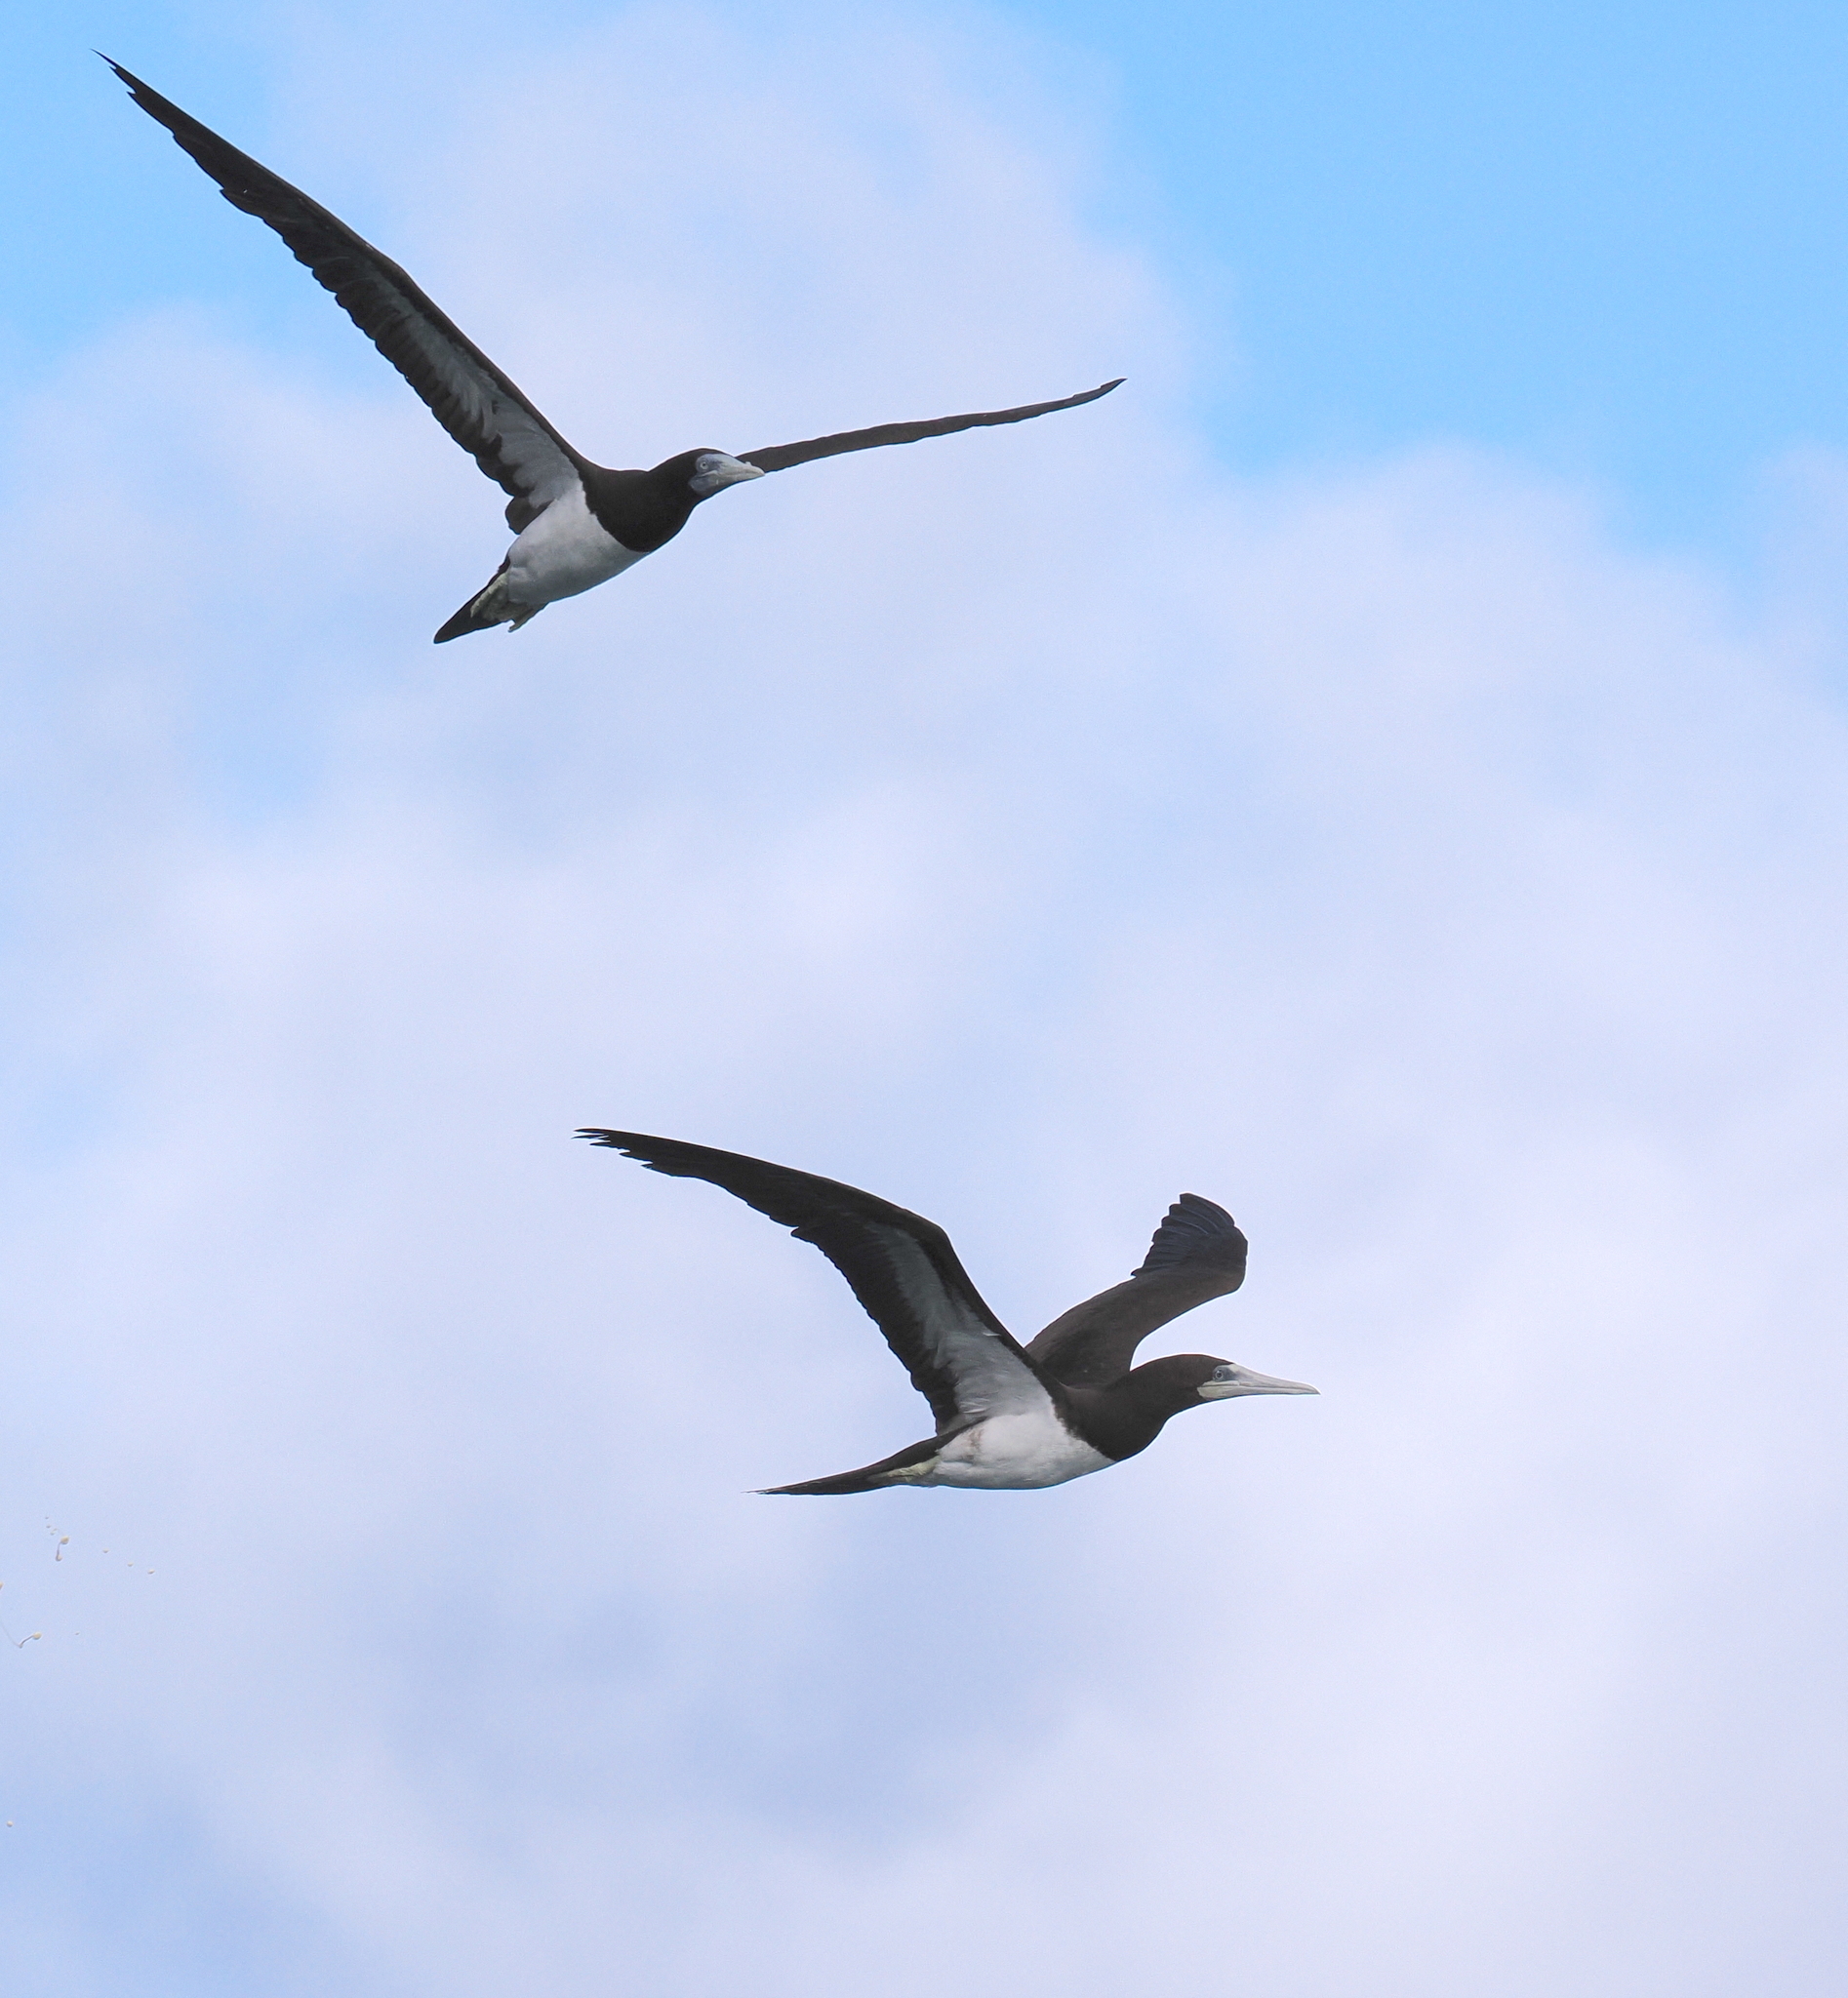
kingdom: Animalia
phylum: Chordata
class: Aves
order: Suliformes
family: Sulidae
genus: Sula
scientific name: Sula leucogaster
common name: Brown booby
